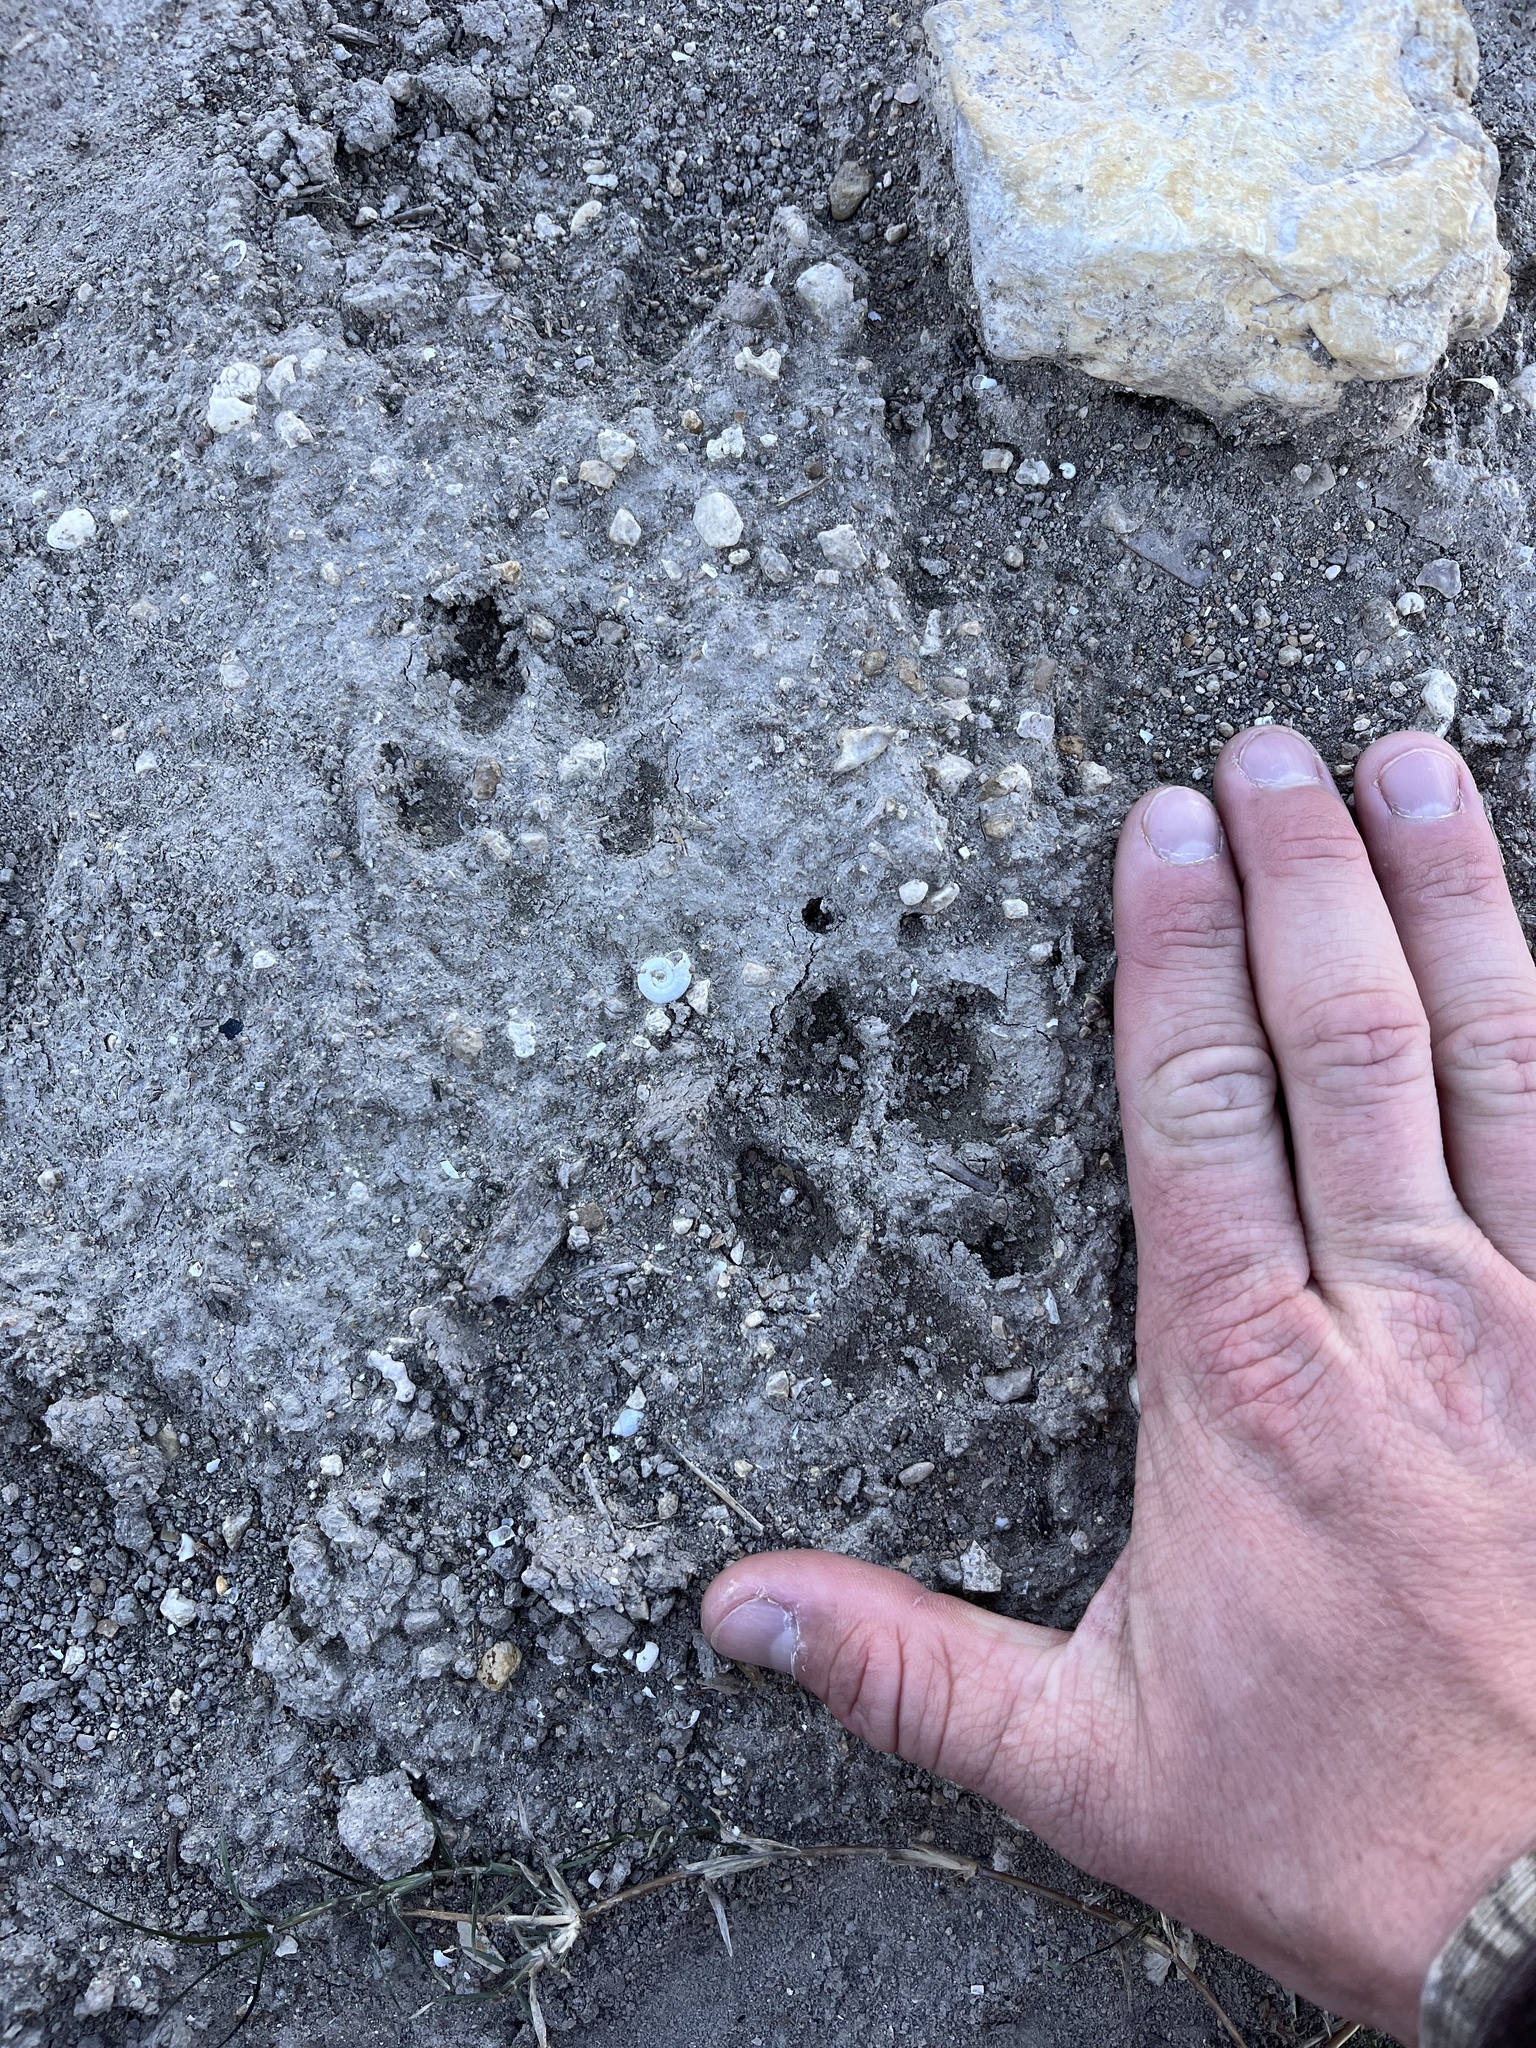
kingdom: Animalia
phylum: Chordata
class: Mammalia
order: Carnivora
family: Canidae
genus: Canis
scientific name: Canis latrans
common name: Coyote
